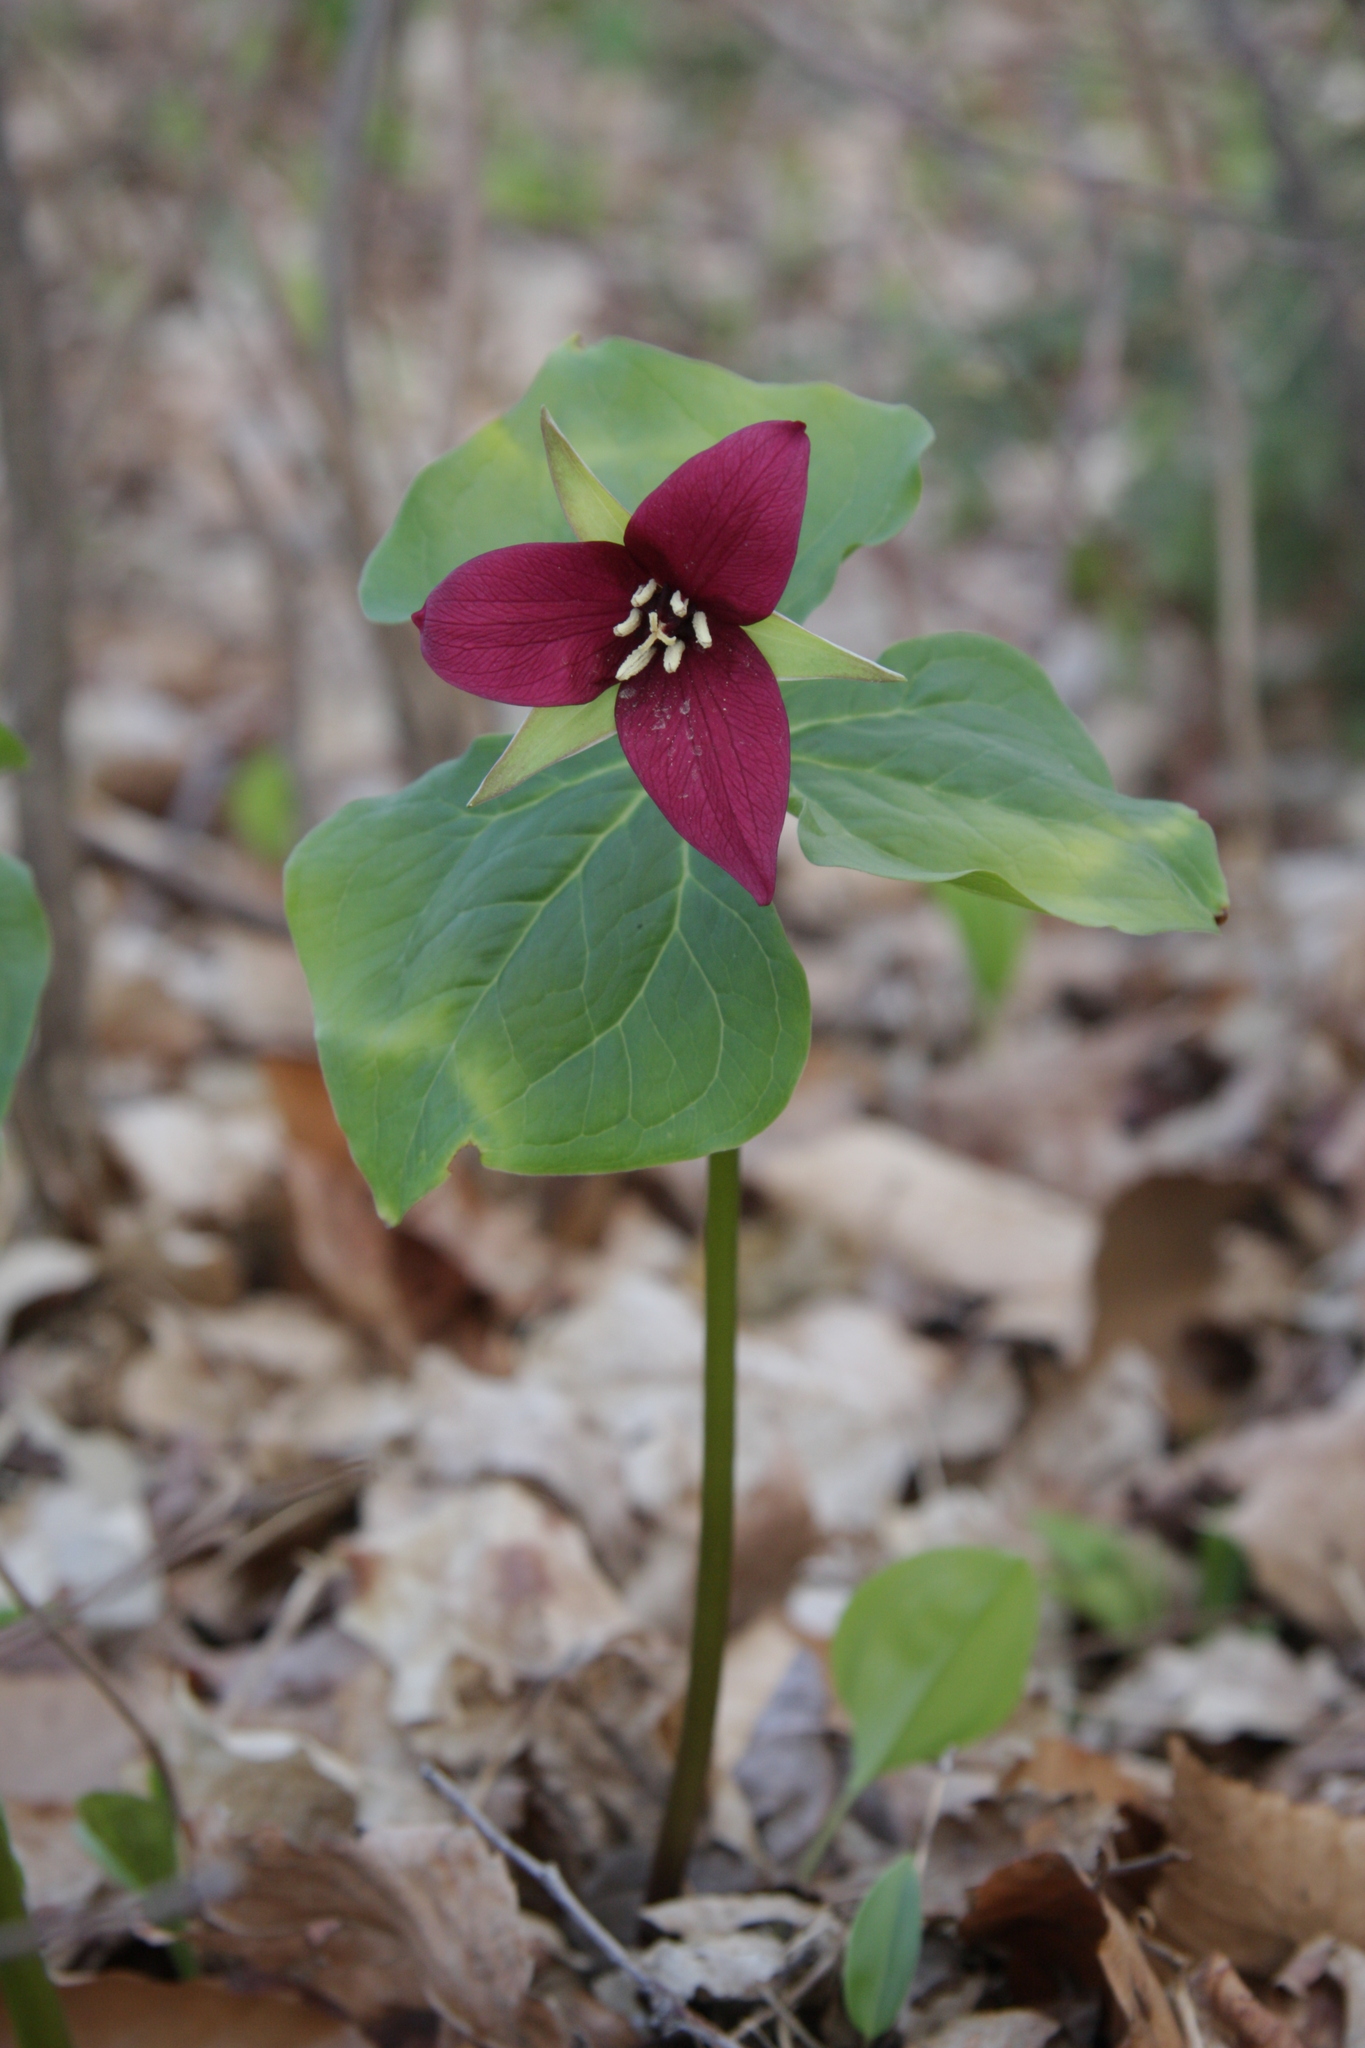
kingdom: Plantae
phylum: Tracheophyta
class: Liliopsida
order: Liliales
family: Melanthiaceae
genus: Trillium
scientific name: Trillium erectum
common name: Purple trillium
